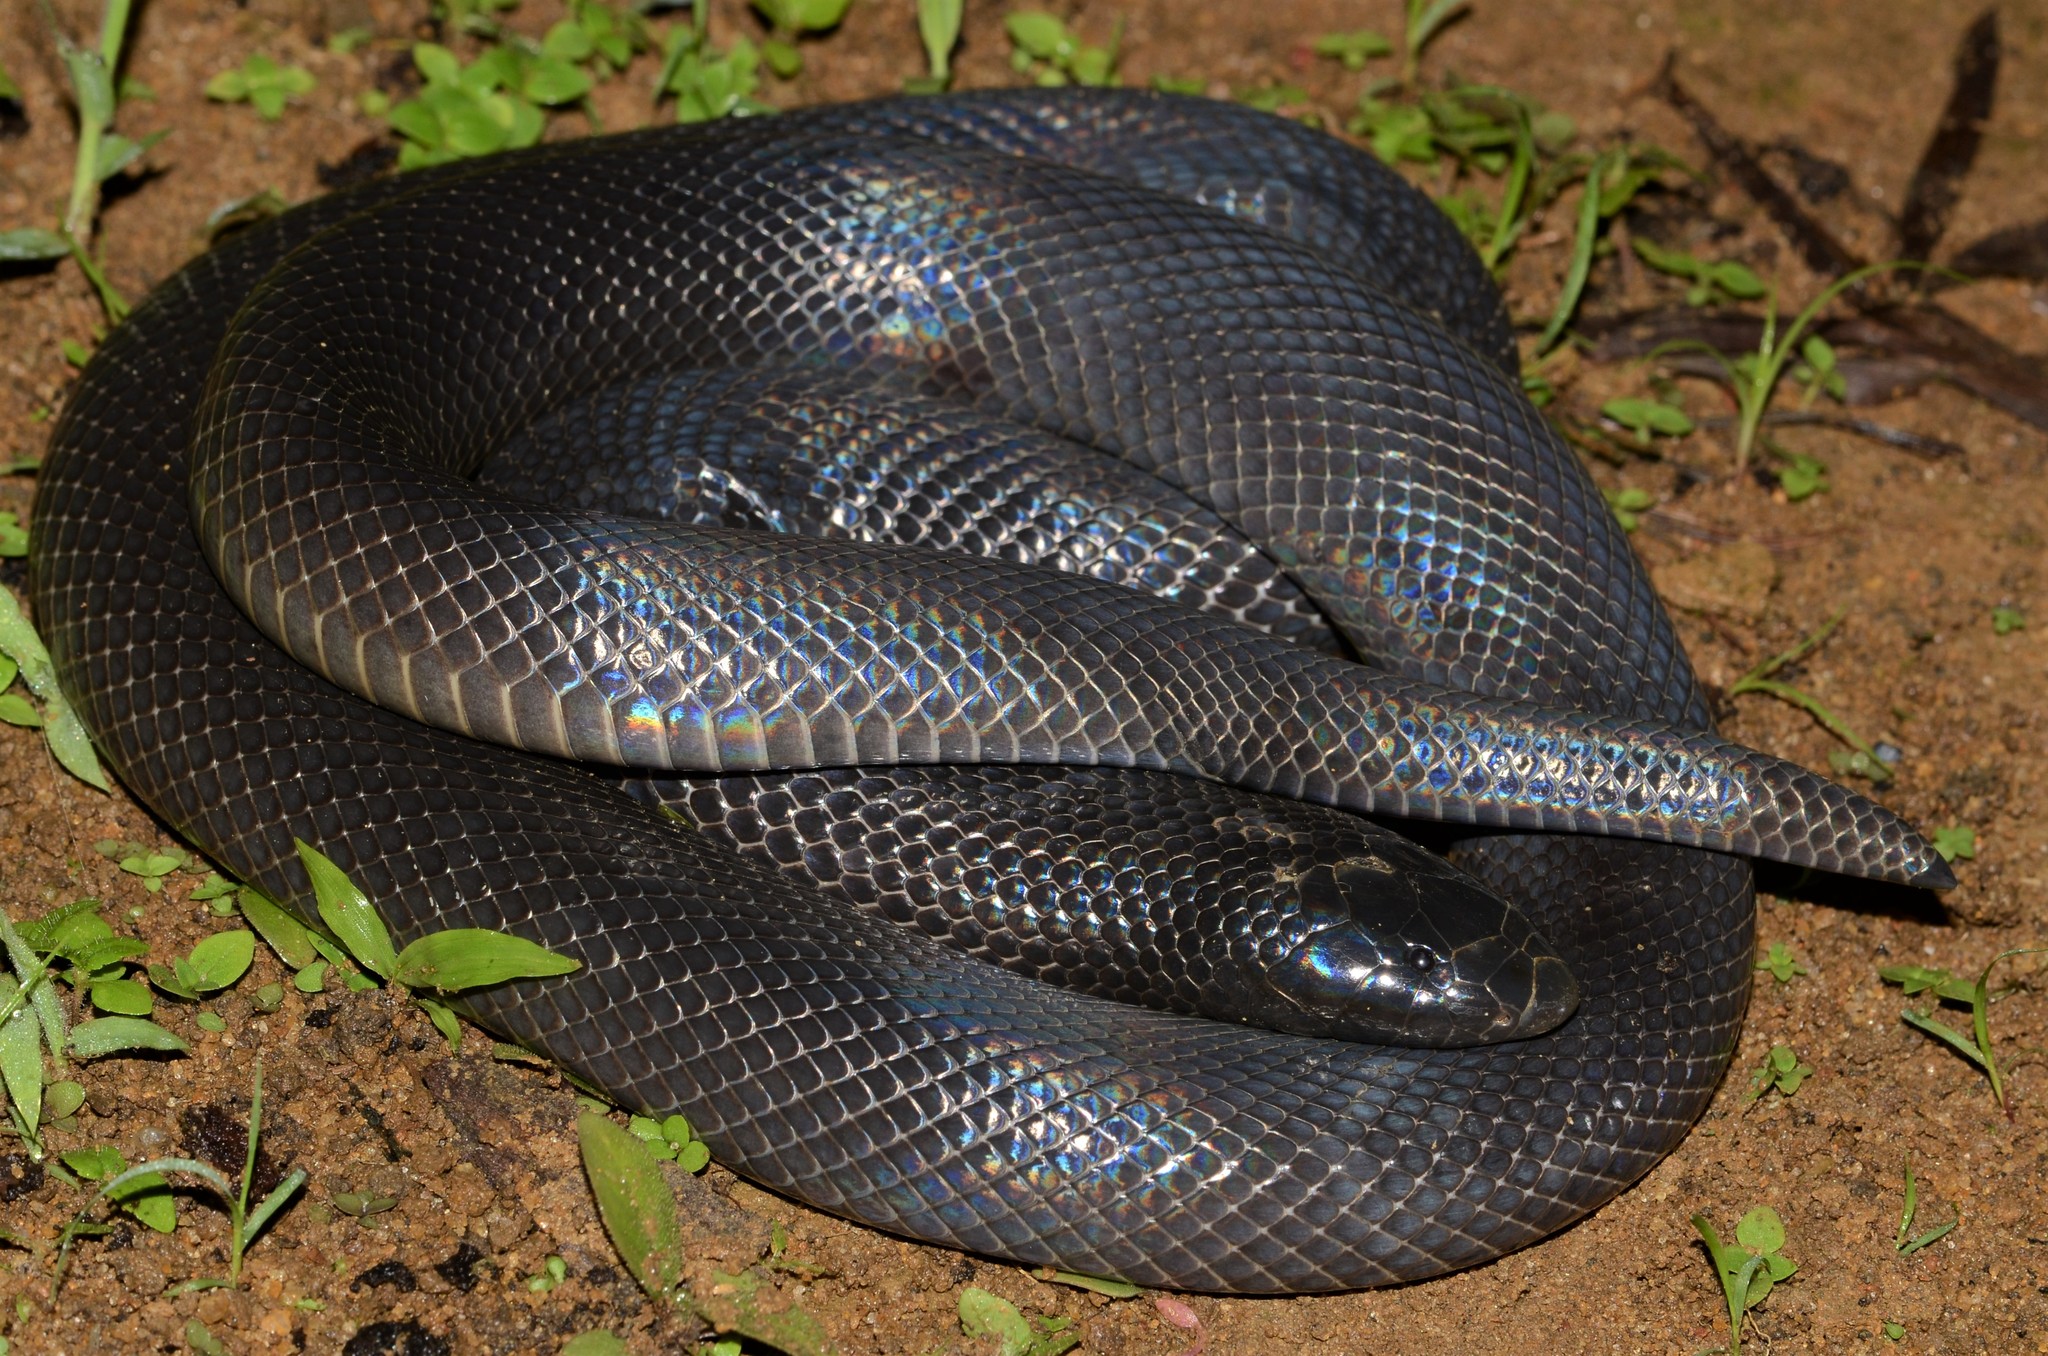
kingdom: Animalia
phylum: Chordata
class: Squamata
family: Atractaspididae
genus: Atractaspis
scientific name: Atractaspis corpulenta
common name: Mole viper
